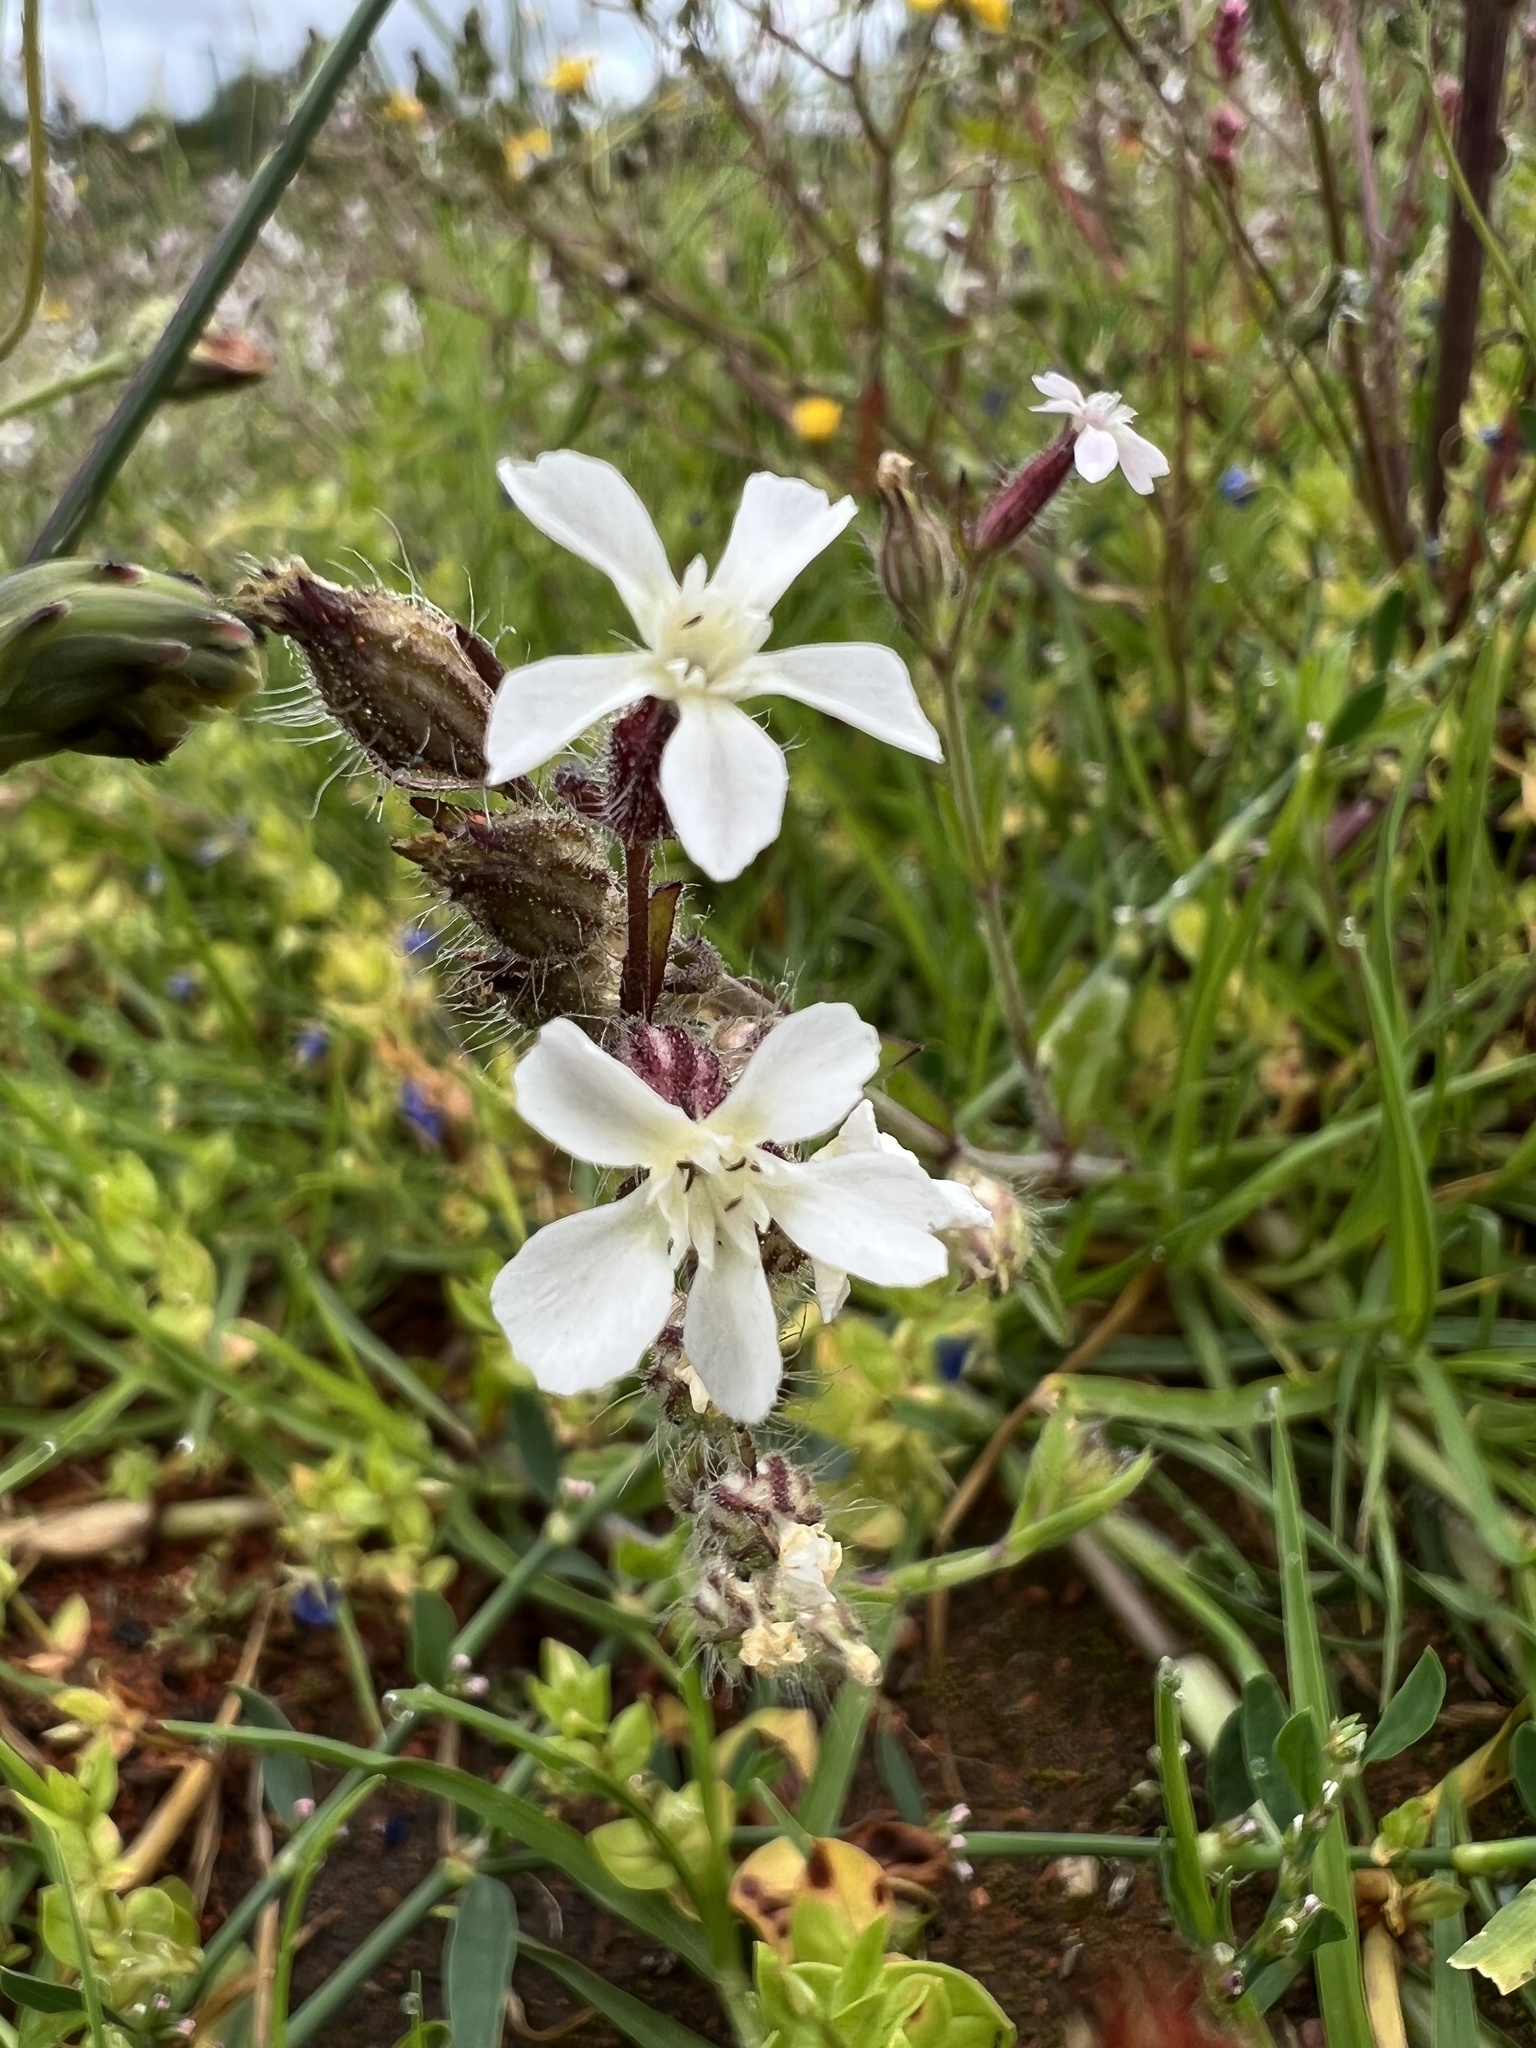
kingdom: Plantae
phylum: Tracheophyta
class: Magnoliopsida
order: Caryophyllales
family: Caryophyllaceae
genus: Silene
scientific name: Silene gallica
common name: Small-flowered catchfly
